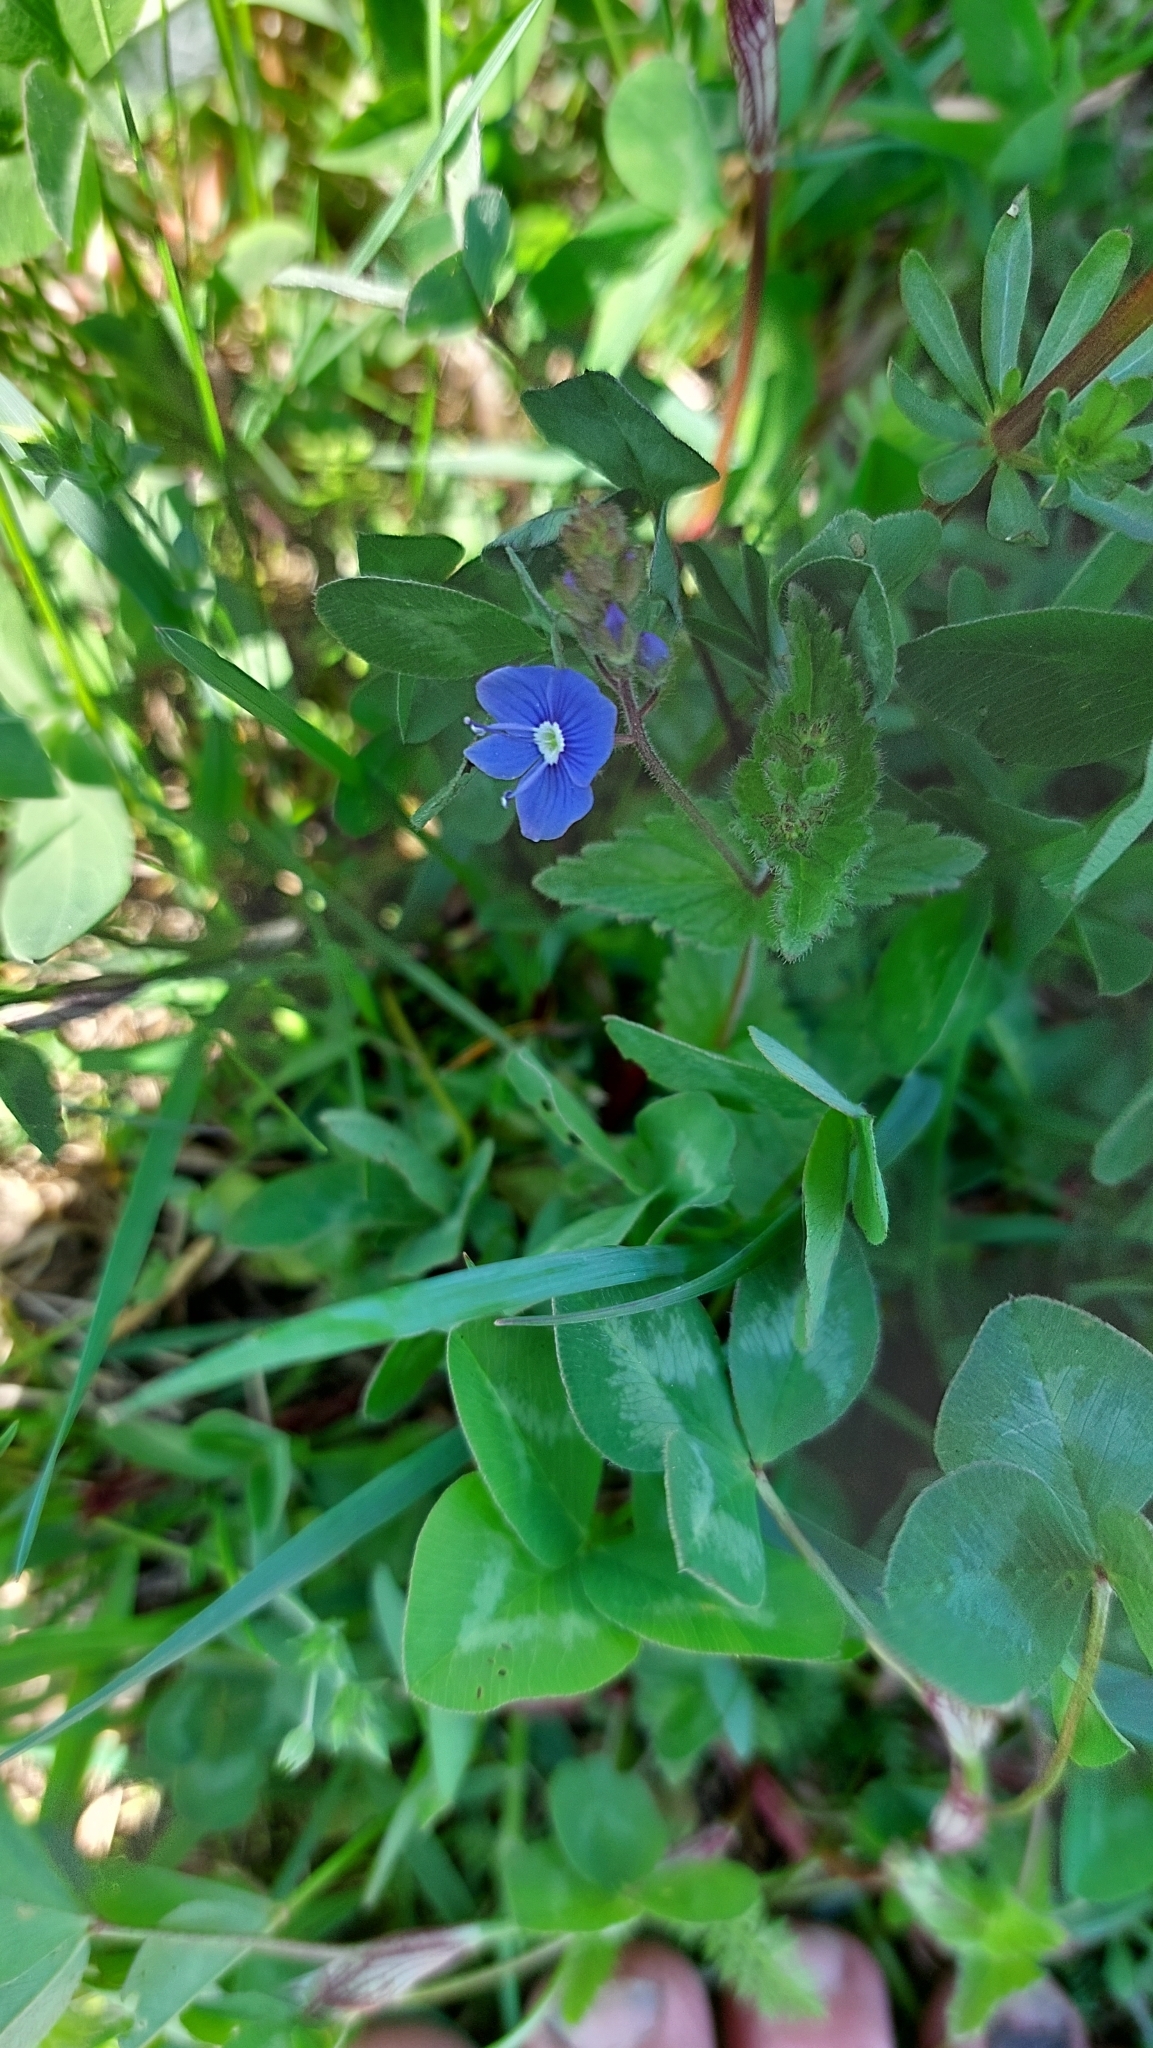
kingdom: Plantae
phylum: Tracheophyta
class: Magnoliopsida
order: Lamiales
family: Plantaginaceae
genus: Veronica
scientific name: Veronica chamaedrys
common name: Germander speedwell
